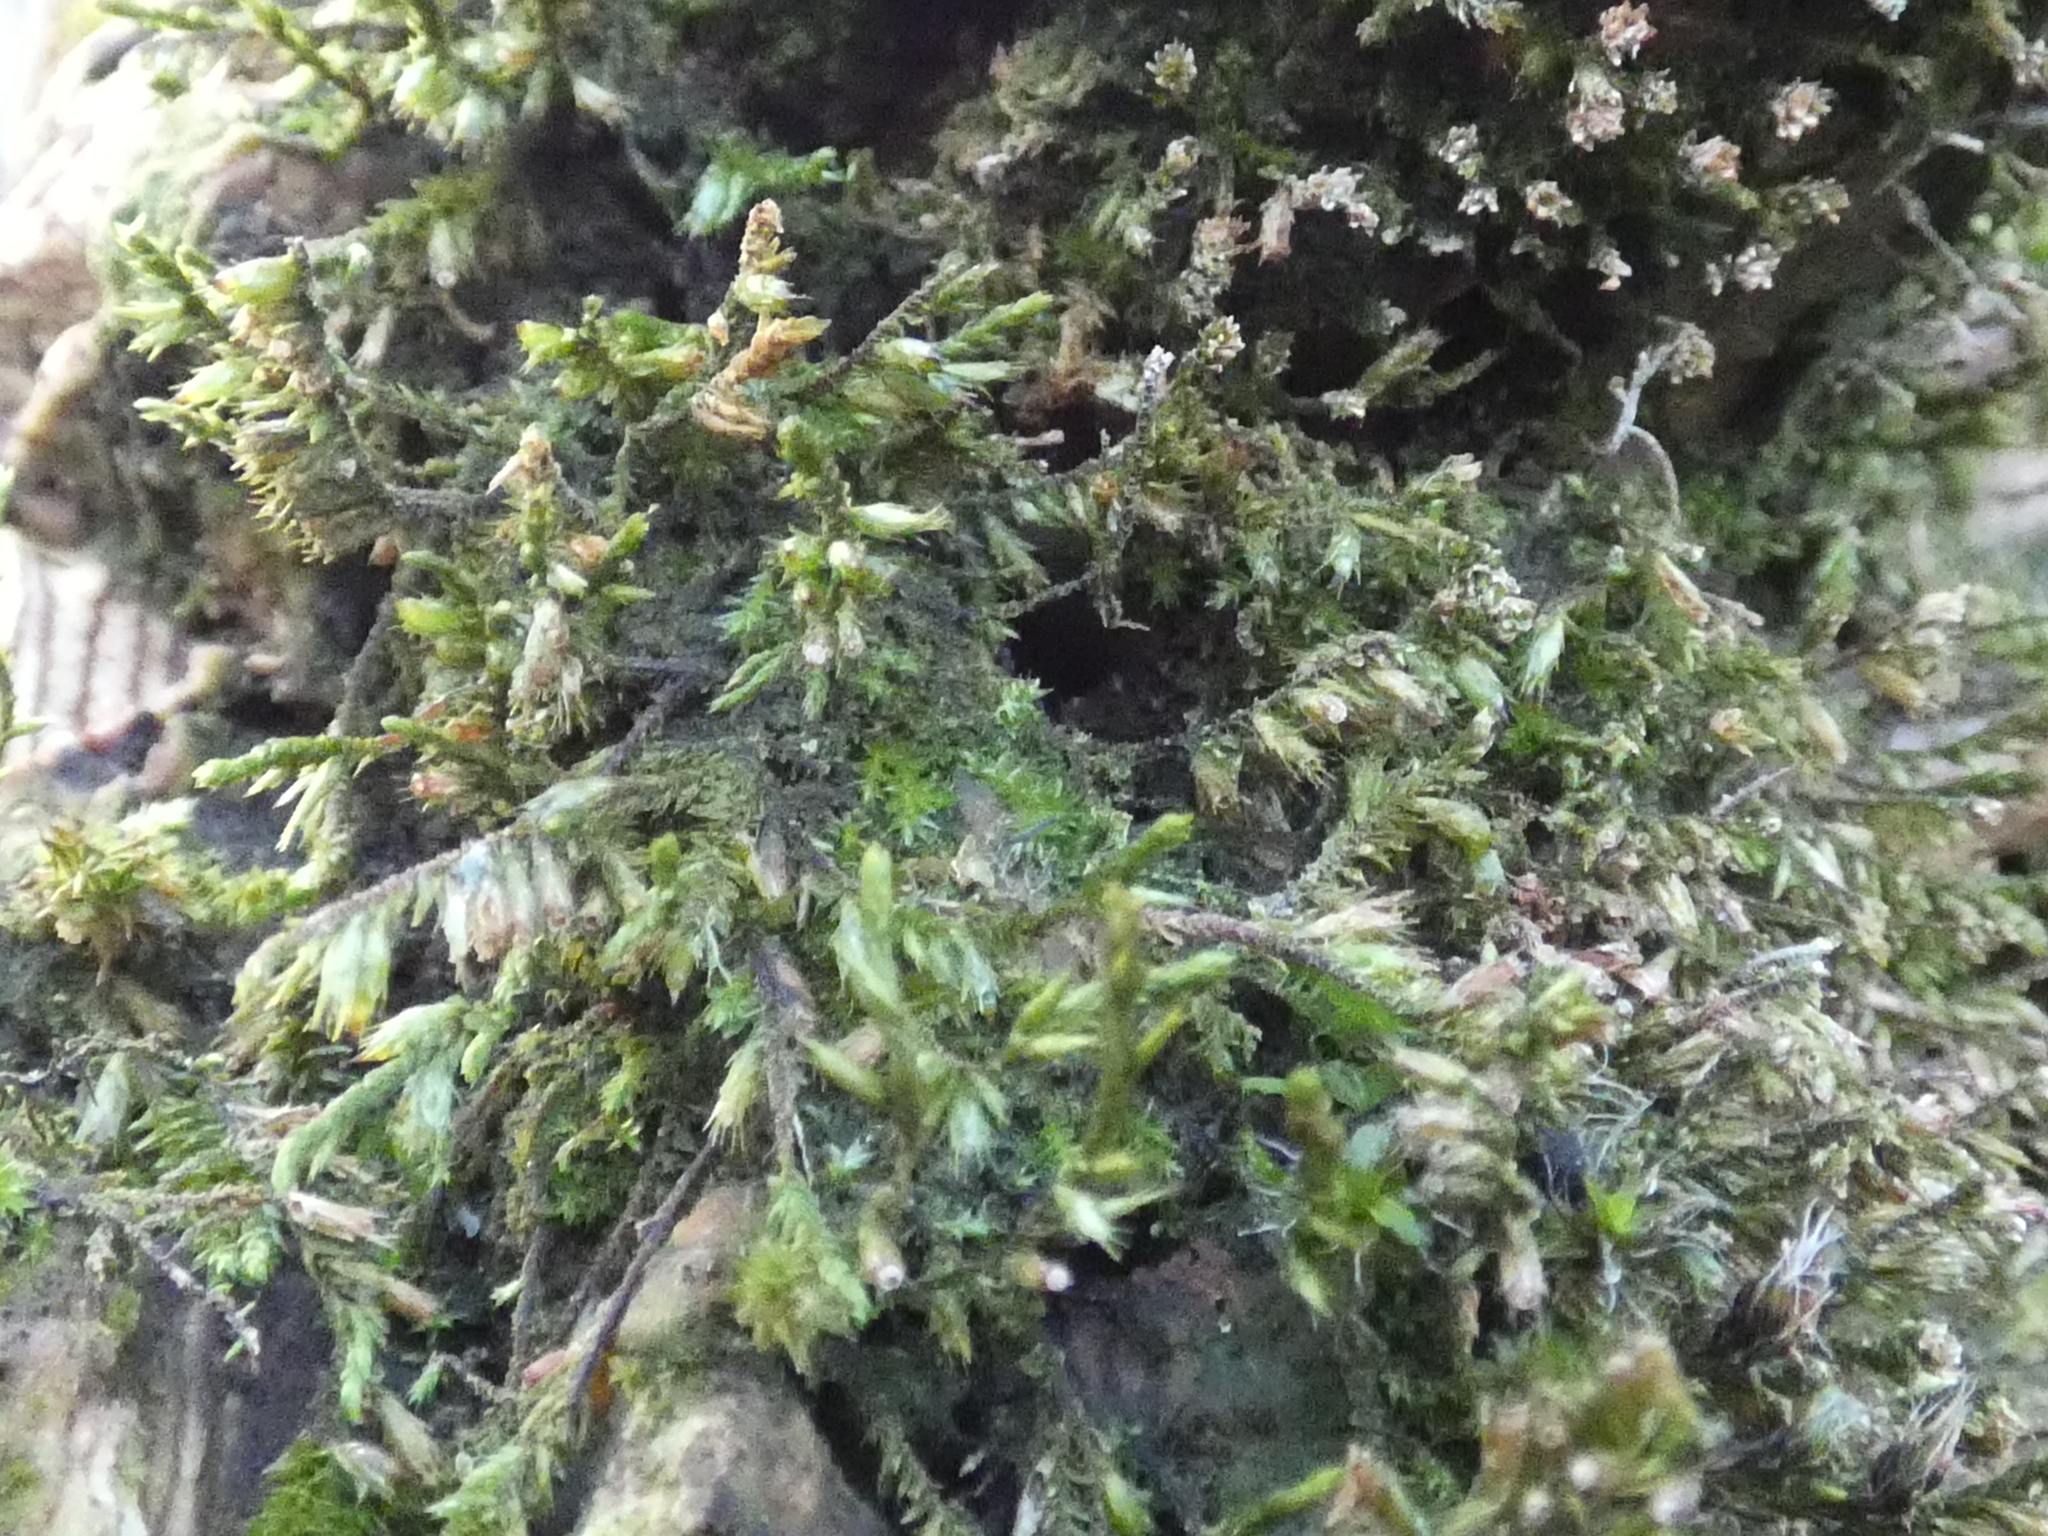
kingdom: Plantae
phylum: Bryophyta
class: Bryopsida
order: Hypnales
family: Cryphaeaceae
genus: Cryphaea
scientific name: Cryphaea heteromalla
